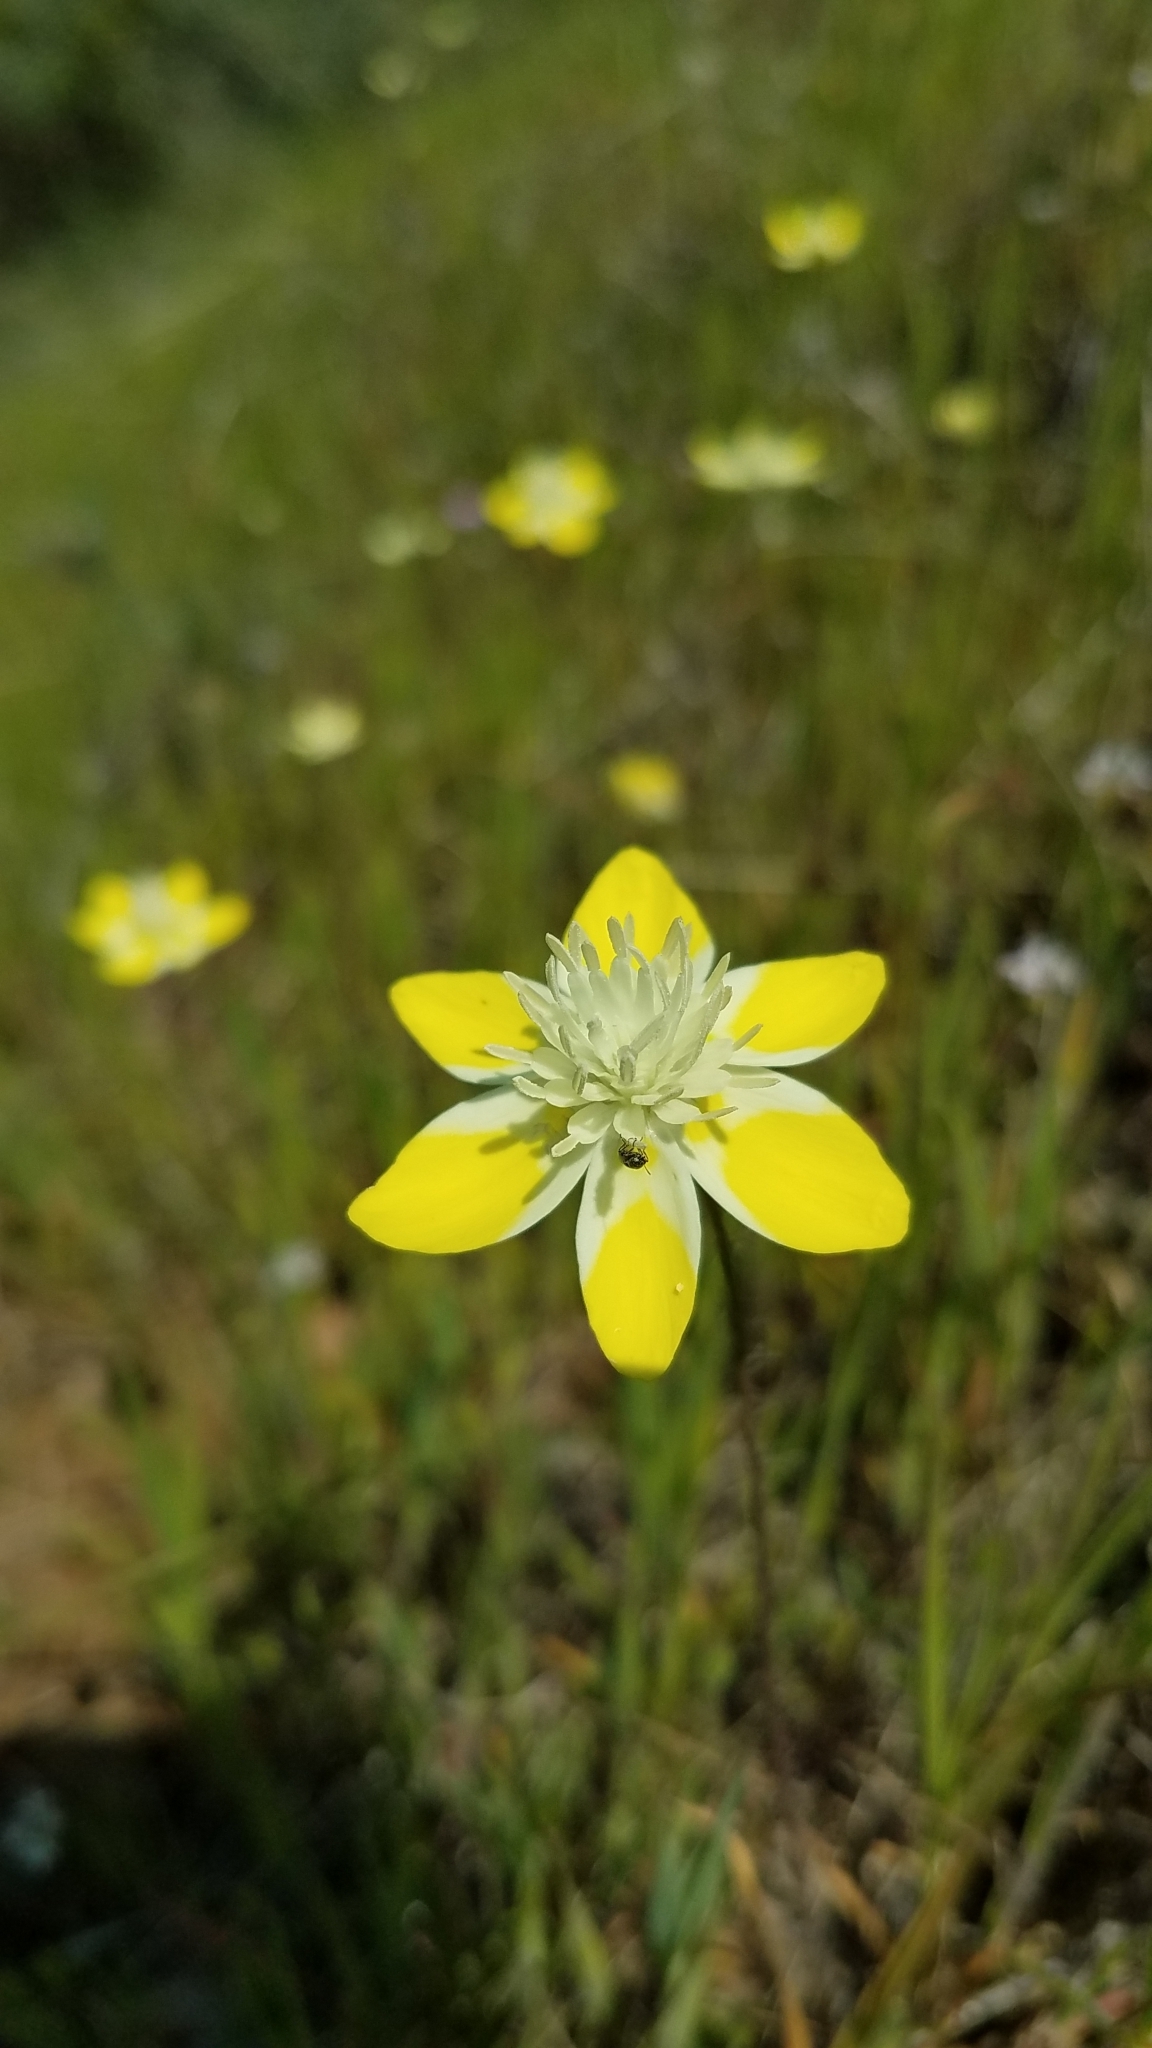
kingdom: Plantae
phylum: Tracheophyta
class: Magnoliopsida
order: Ranunculales
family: Papaveraceae
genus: Platystemon
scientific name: Platystemon californicus
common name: Cream-cups
